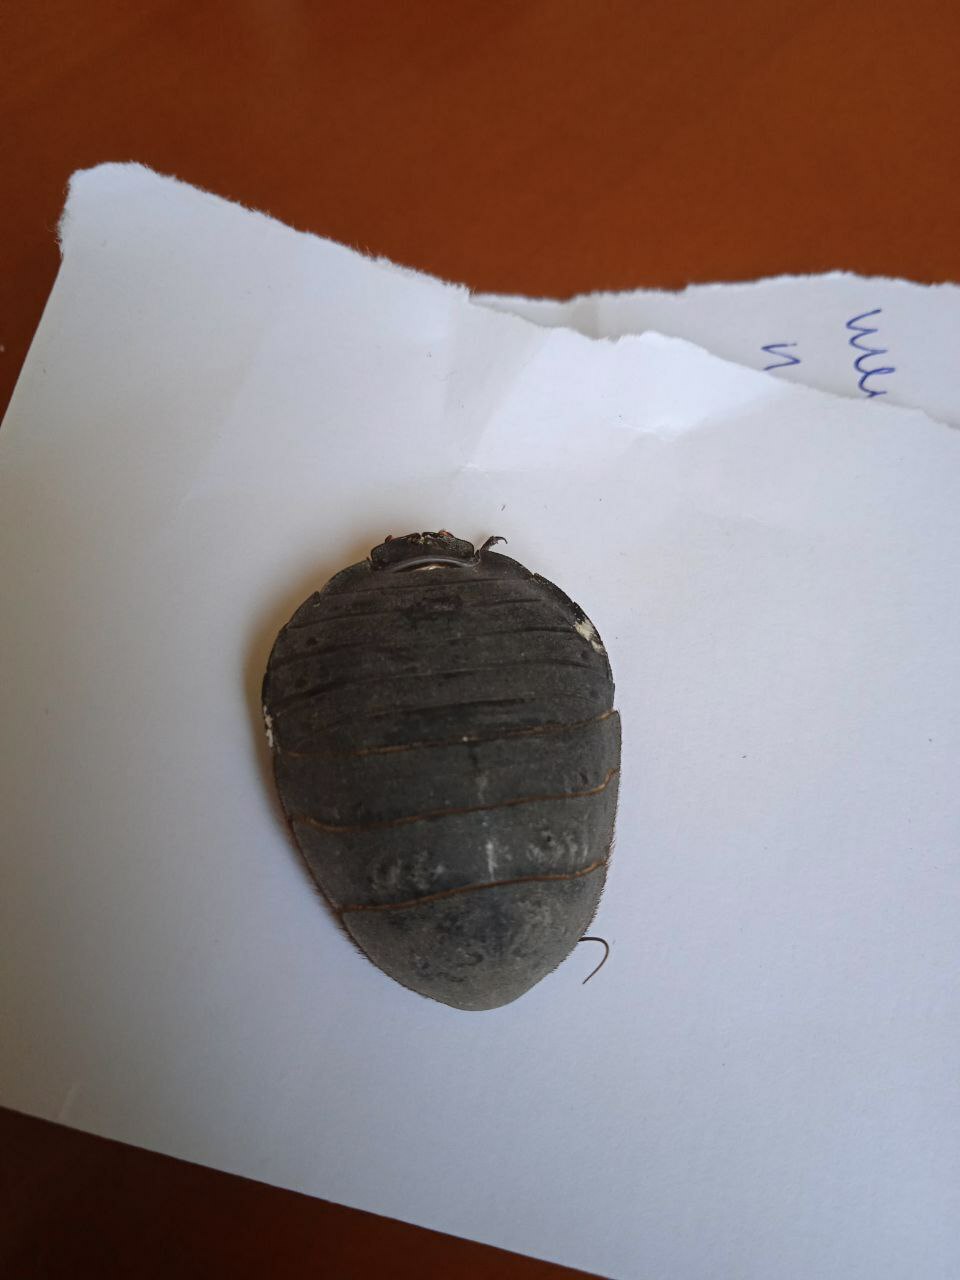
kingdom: Animalia
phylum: Arthropoda
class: Insecta
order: Blattodea
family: Corydiidae
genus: Polyphaga
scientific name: Polyphaga saussurei
